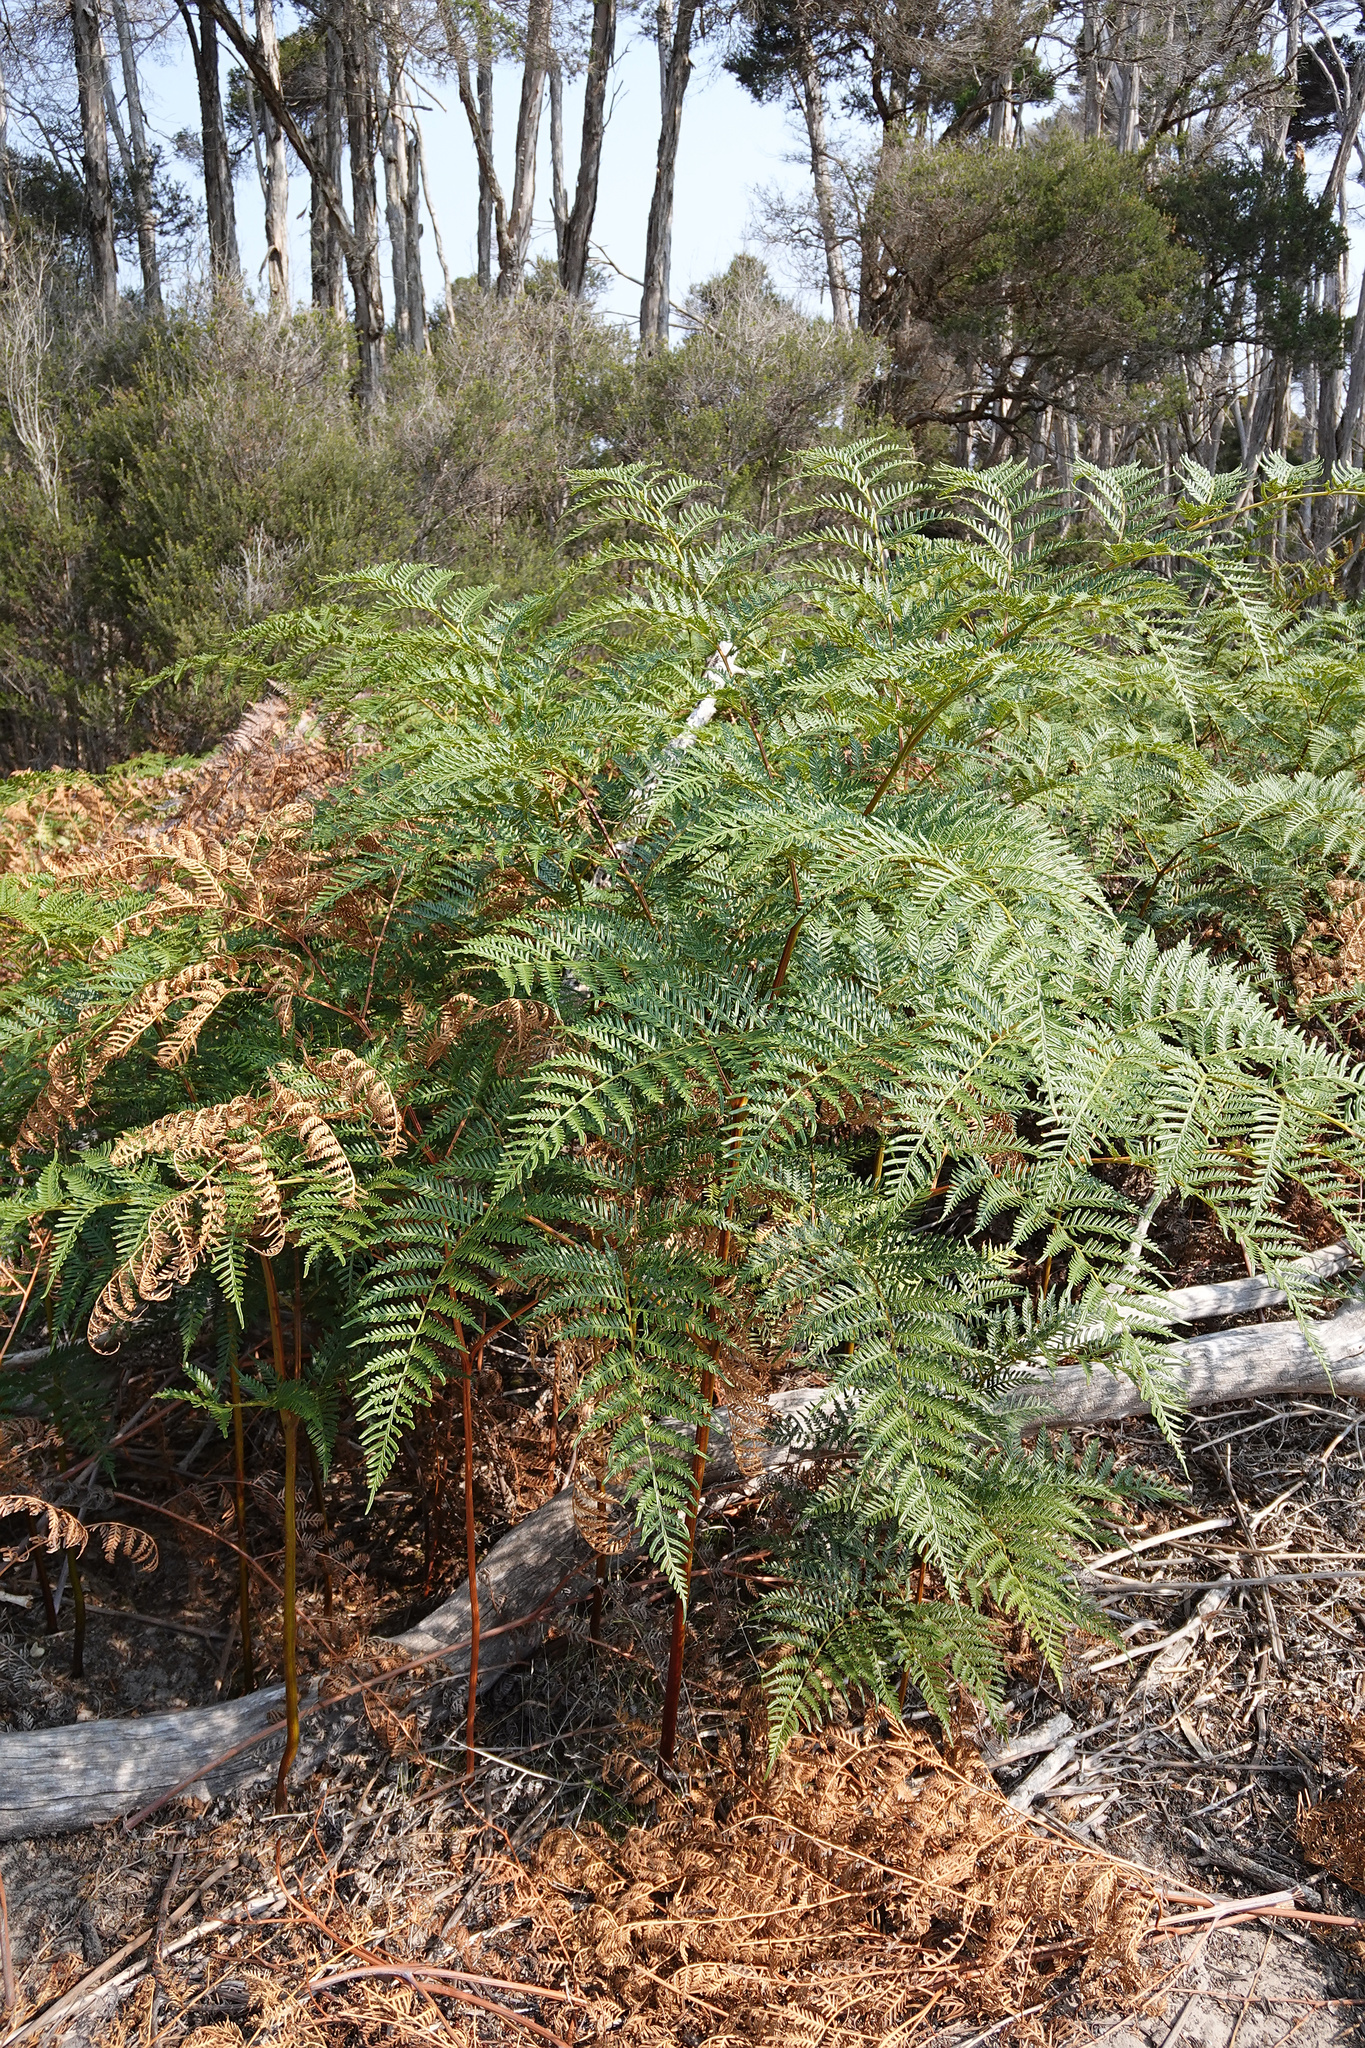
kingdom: Plantae
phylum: Tracheophyta
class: Polypodiopsida
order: Polypodiales
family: Dennstaedtiaceae
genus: Pteridium
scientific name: Pteridium esculentum
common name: Bracken fern
